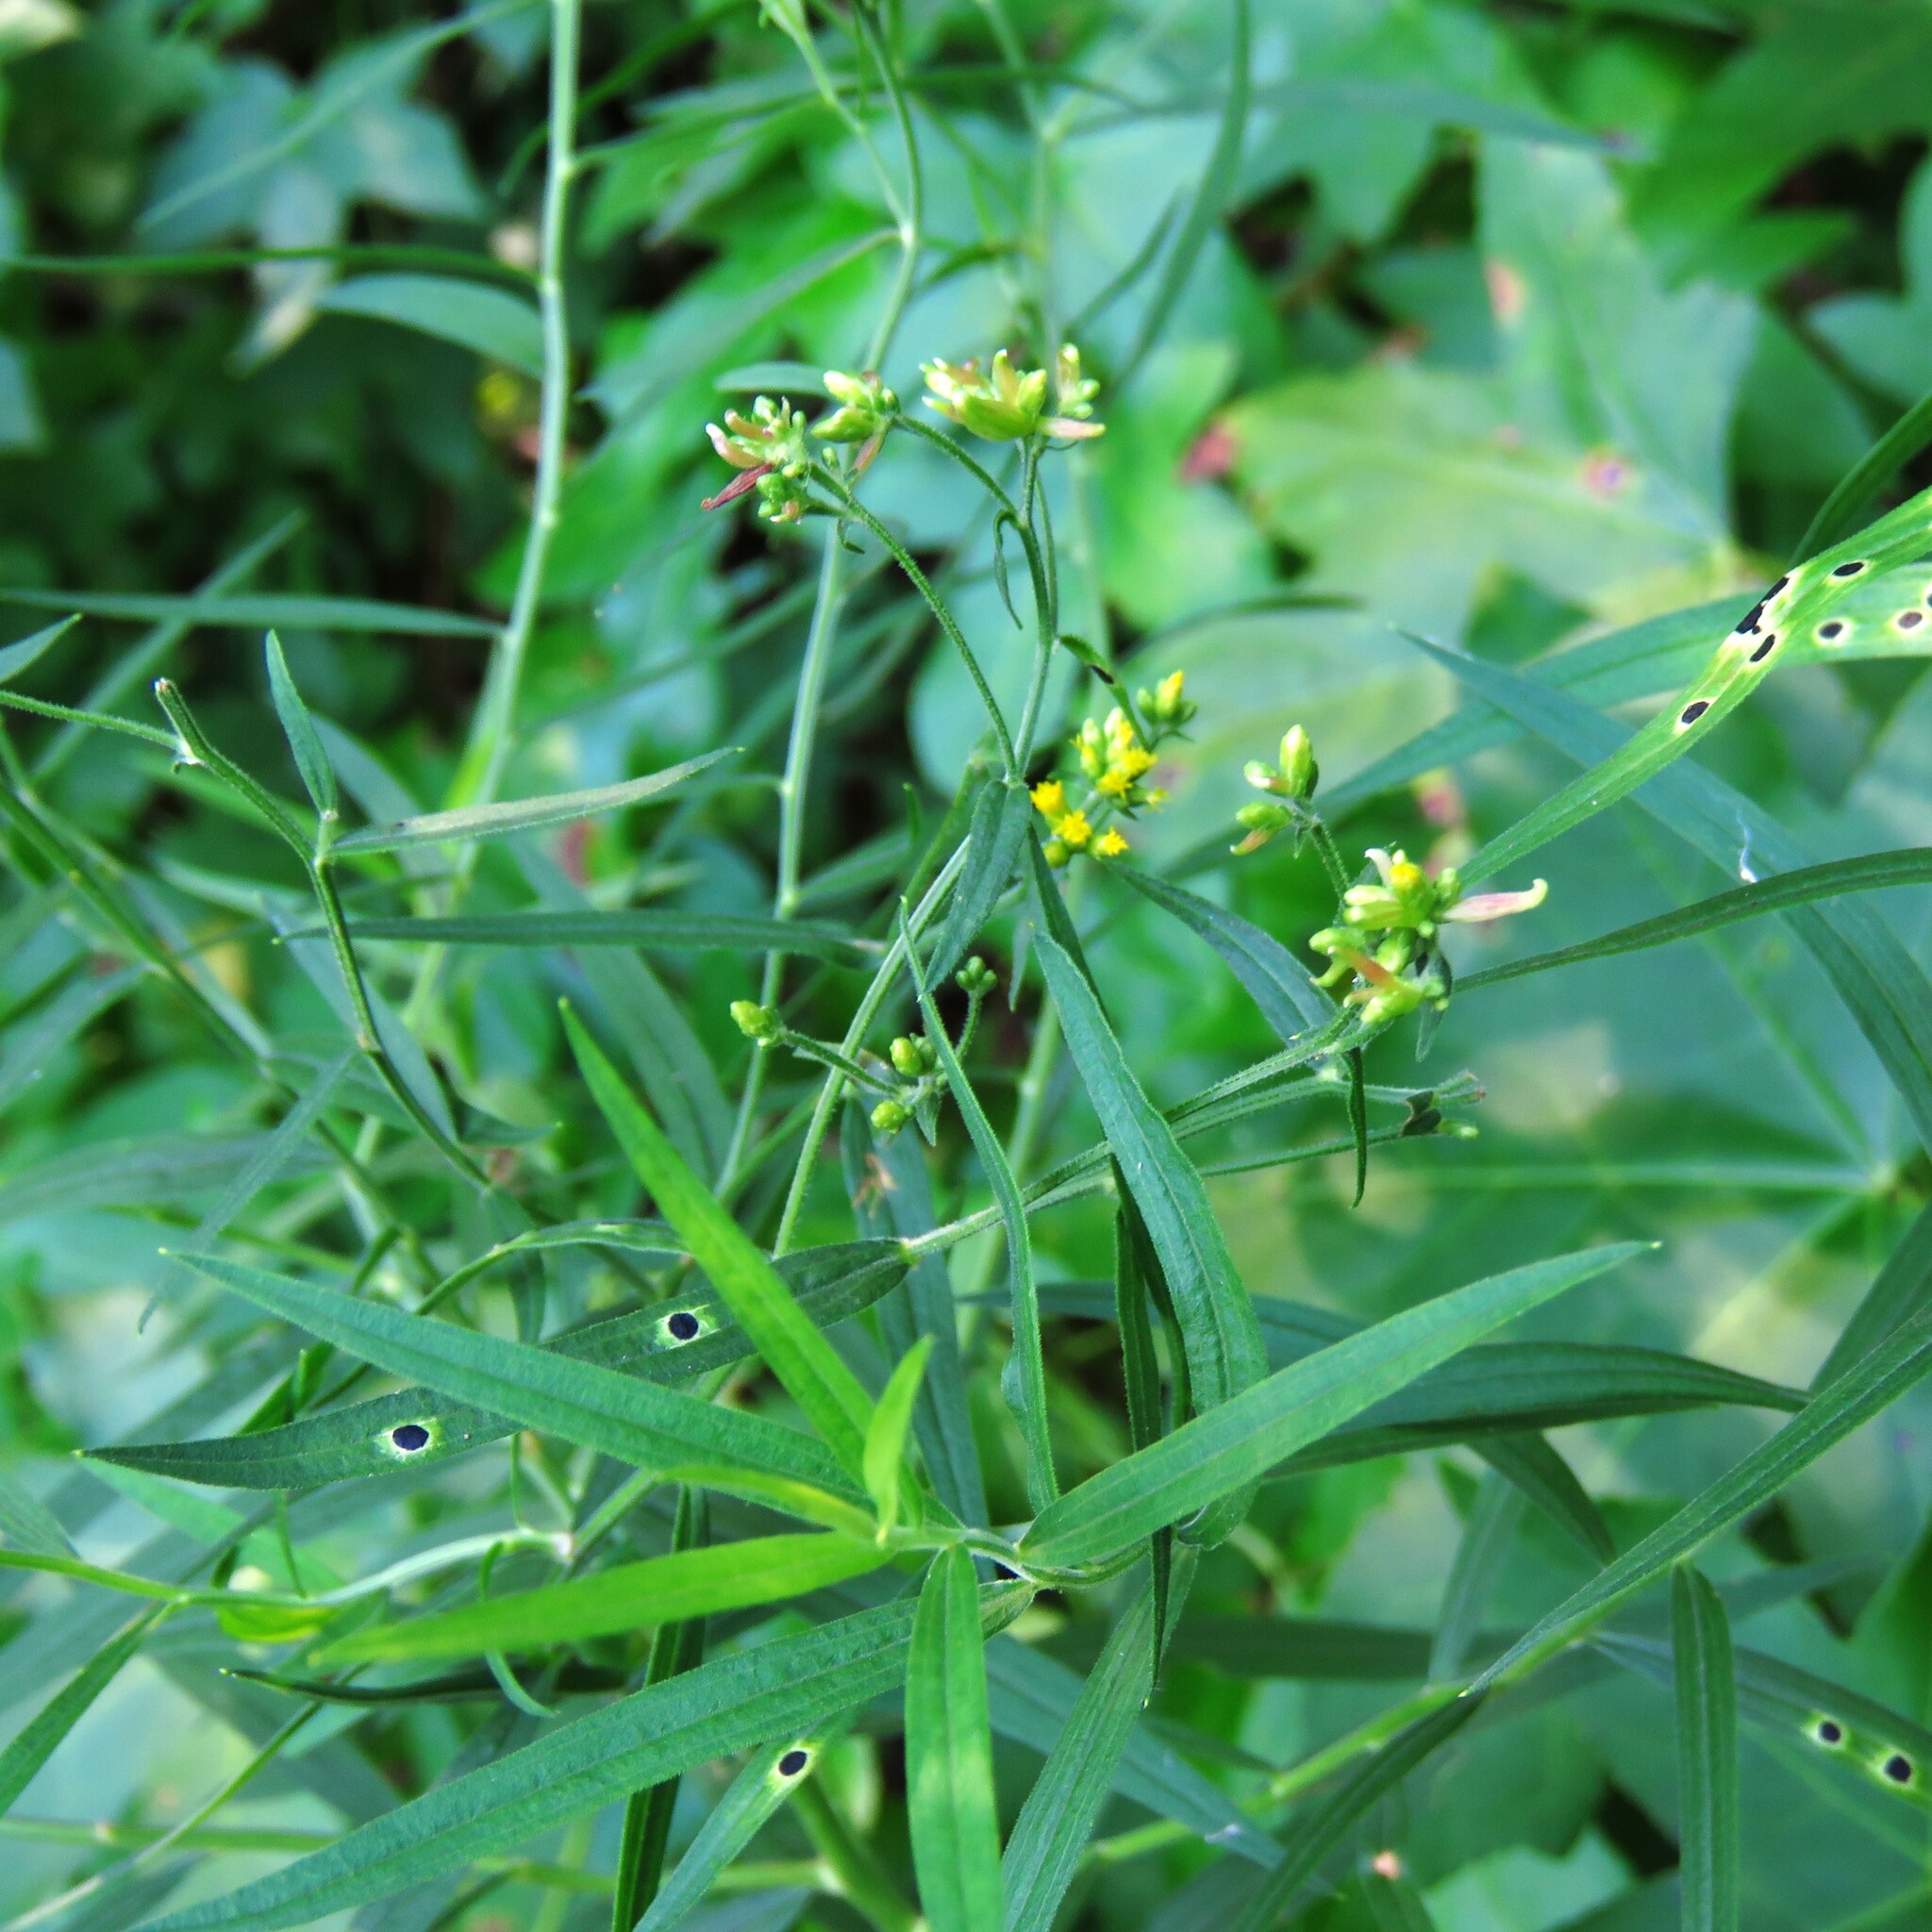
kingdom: Plantae
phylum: Tracheophyta
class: Magnoliopsida
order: Asterales
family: Asteraceae
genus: Euthamia
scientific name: Euthamia graminifolia
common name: Common goldentop
